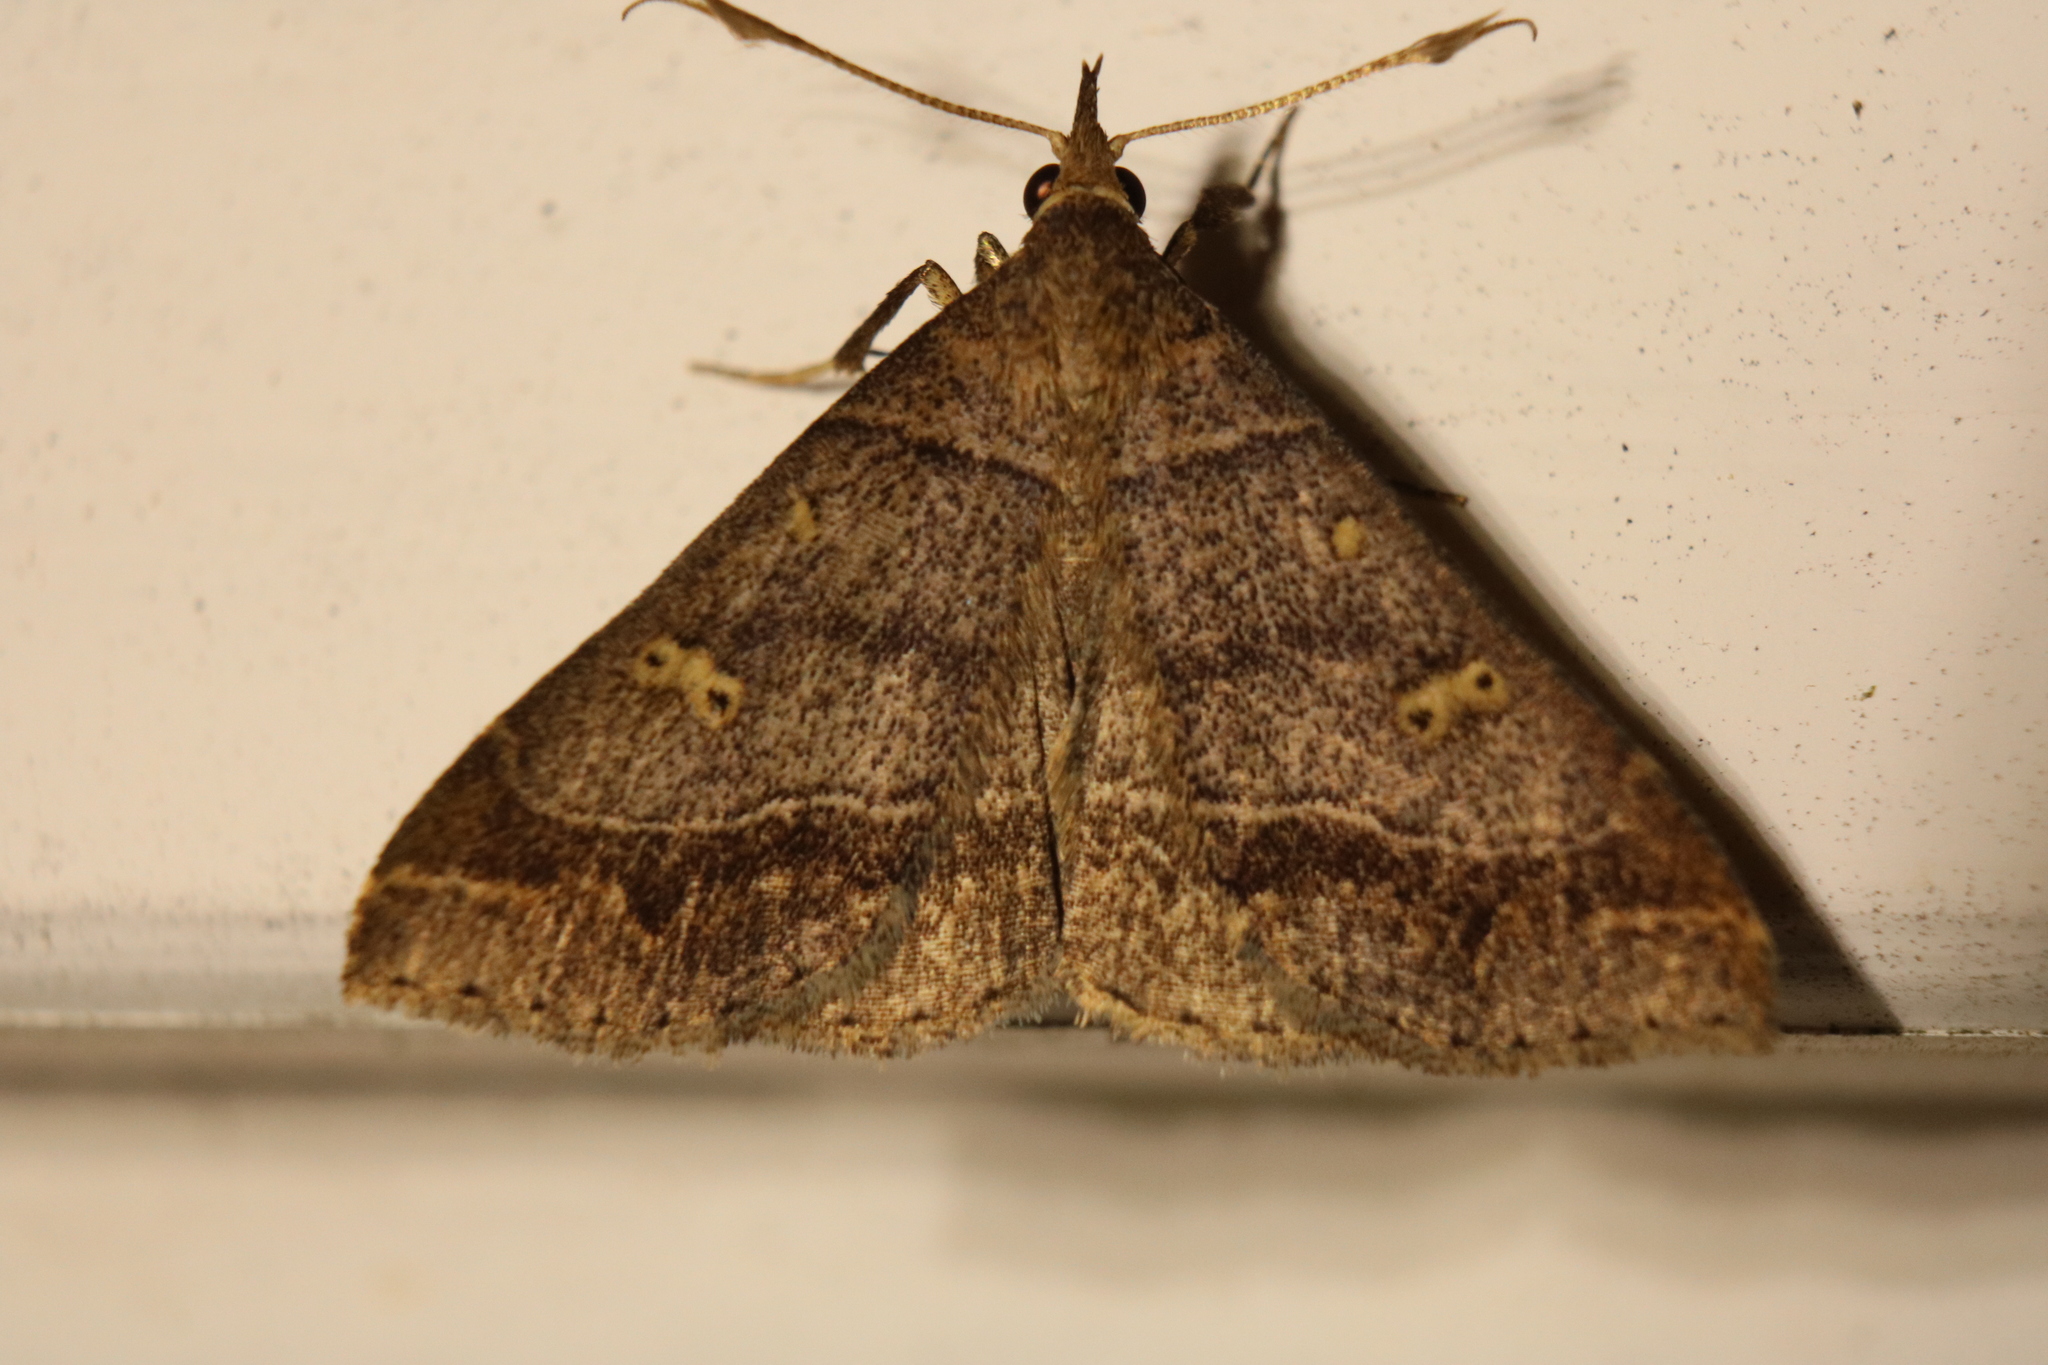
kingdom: Animalia
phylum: Arthropoda
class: Insecta
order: Lepidoptera
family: Erebidae
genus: Renia
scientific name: Renia flavipunctalis
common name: Yellow-spotted renia moth
